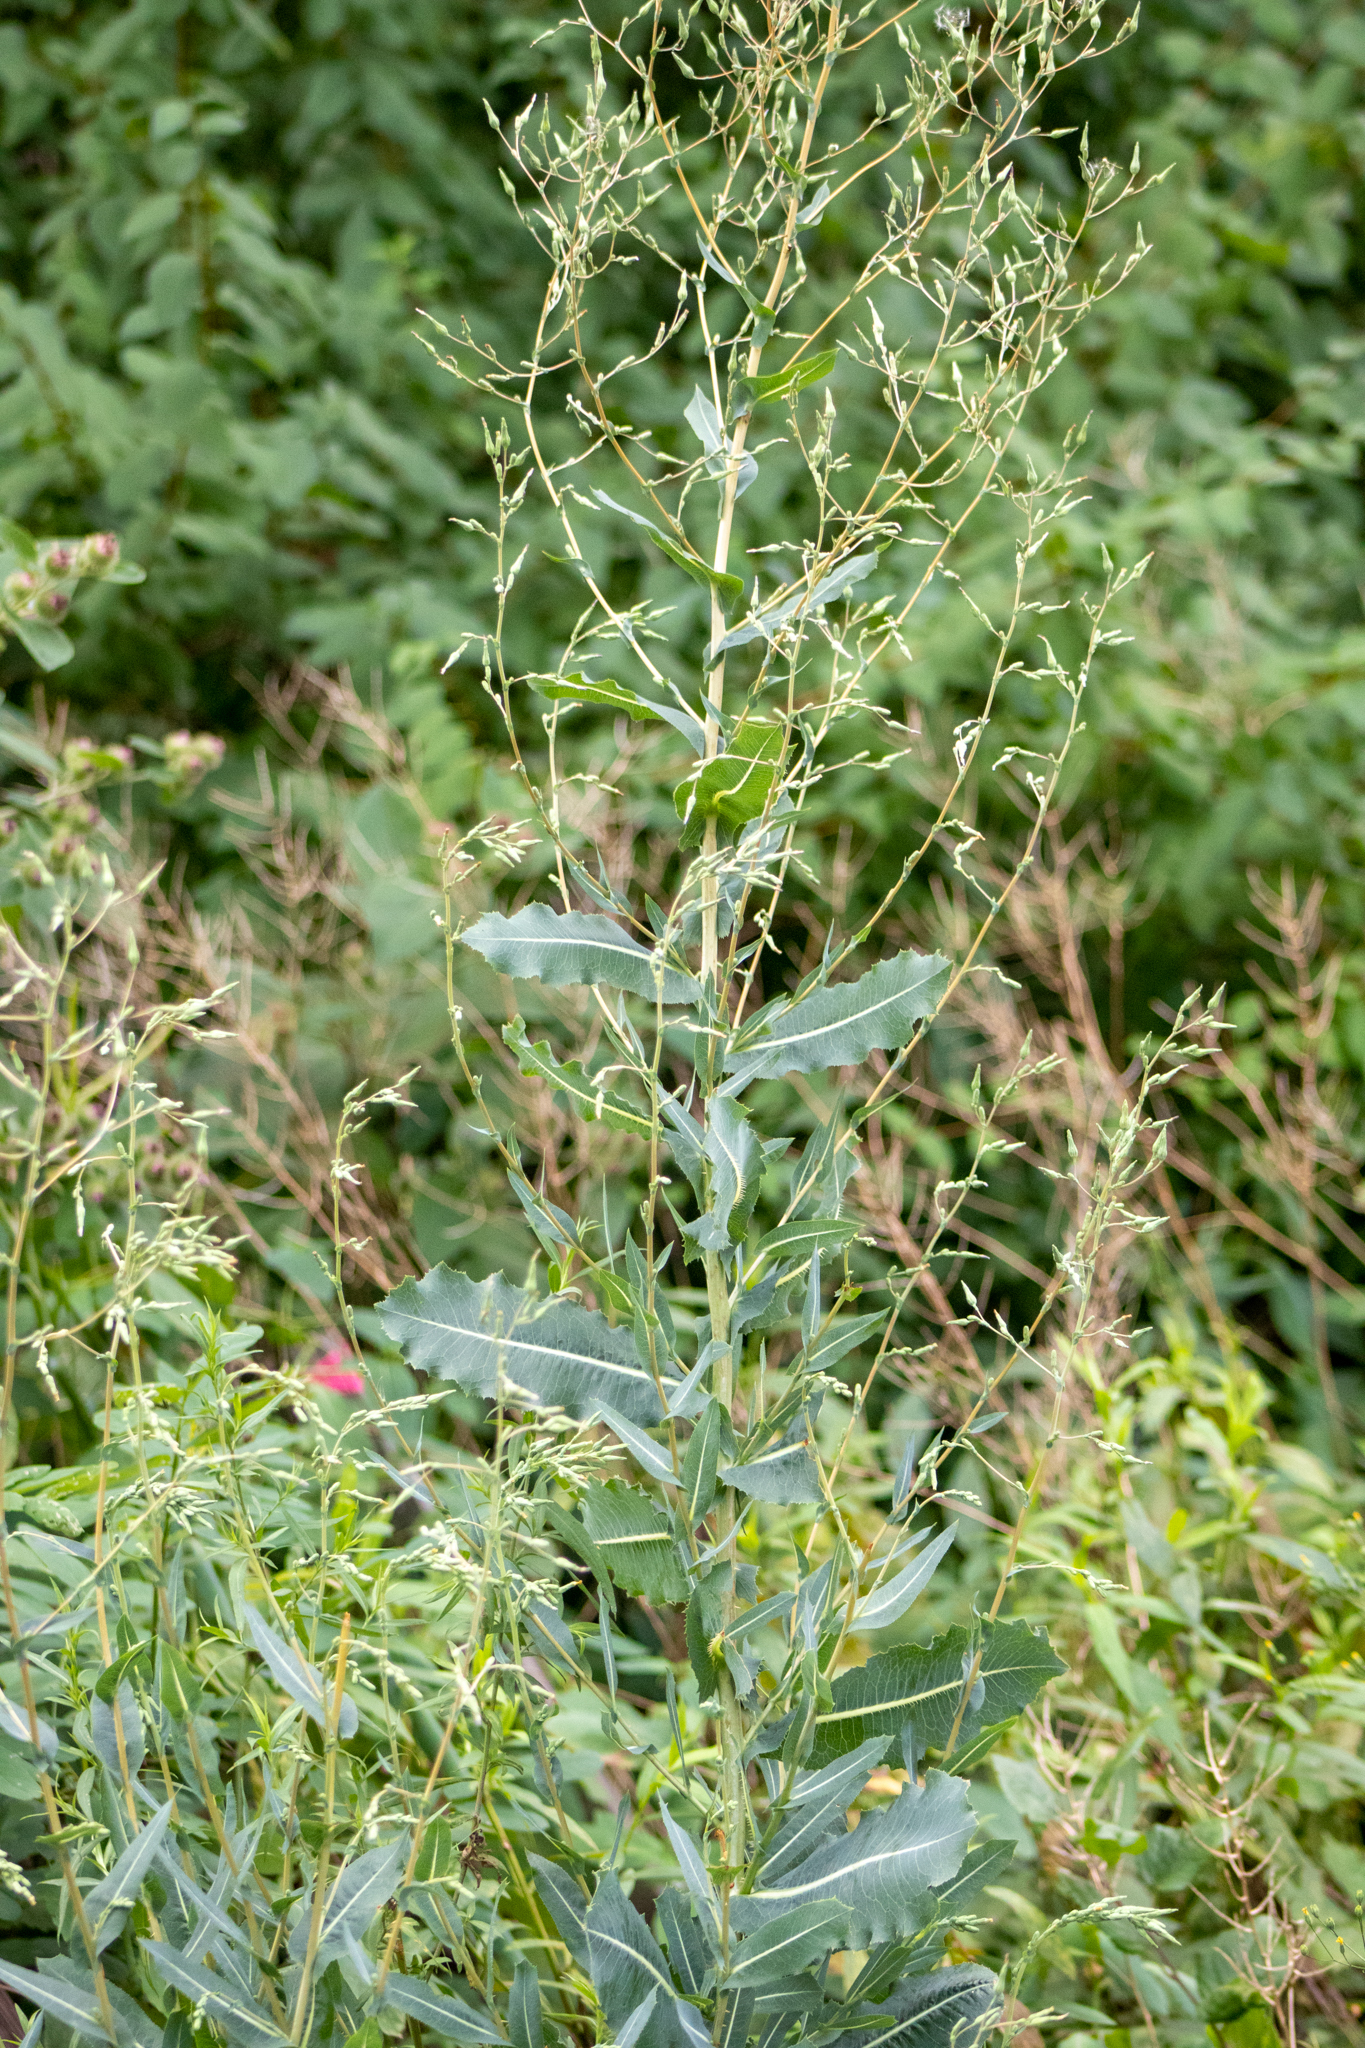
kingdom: Plantae
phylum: Tracheophyta
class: Magnoliopsida
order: Asterales
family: Asteraceae
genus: Lactuca
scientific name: Lactuca serriola
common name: Prickly lettuce
